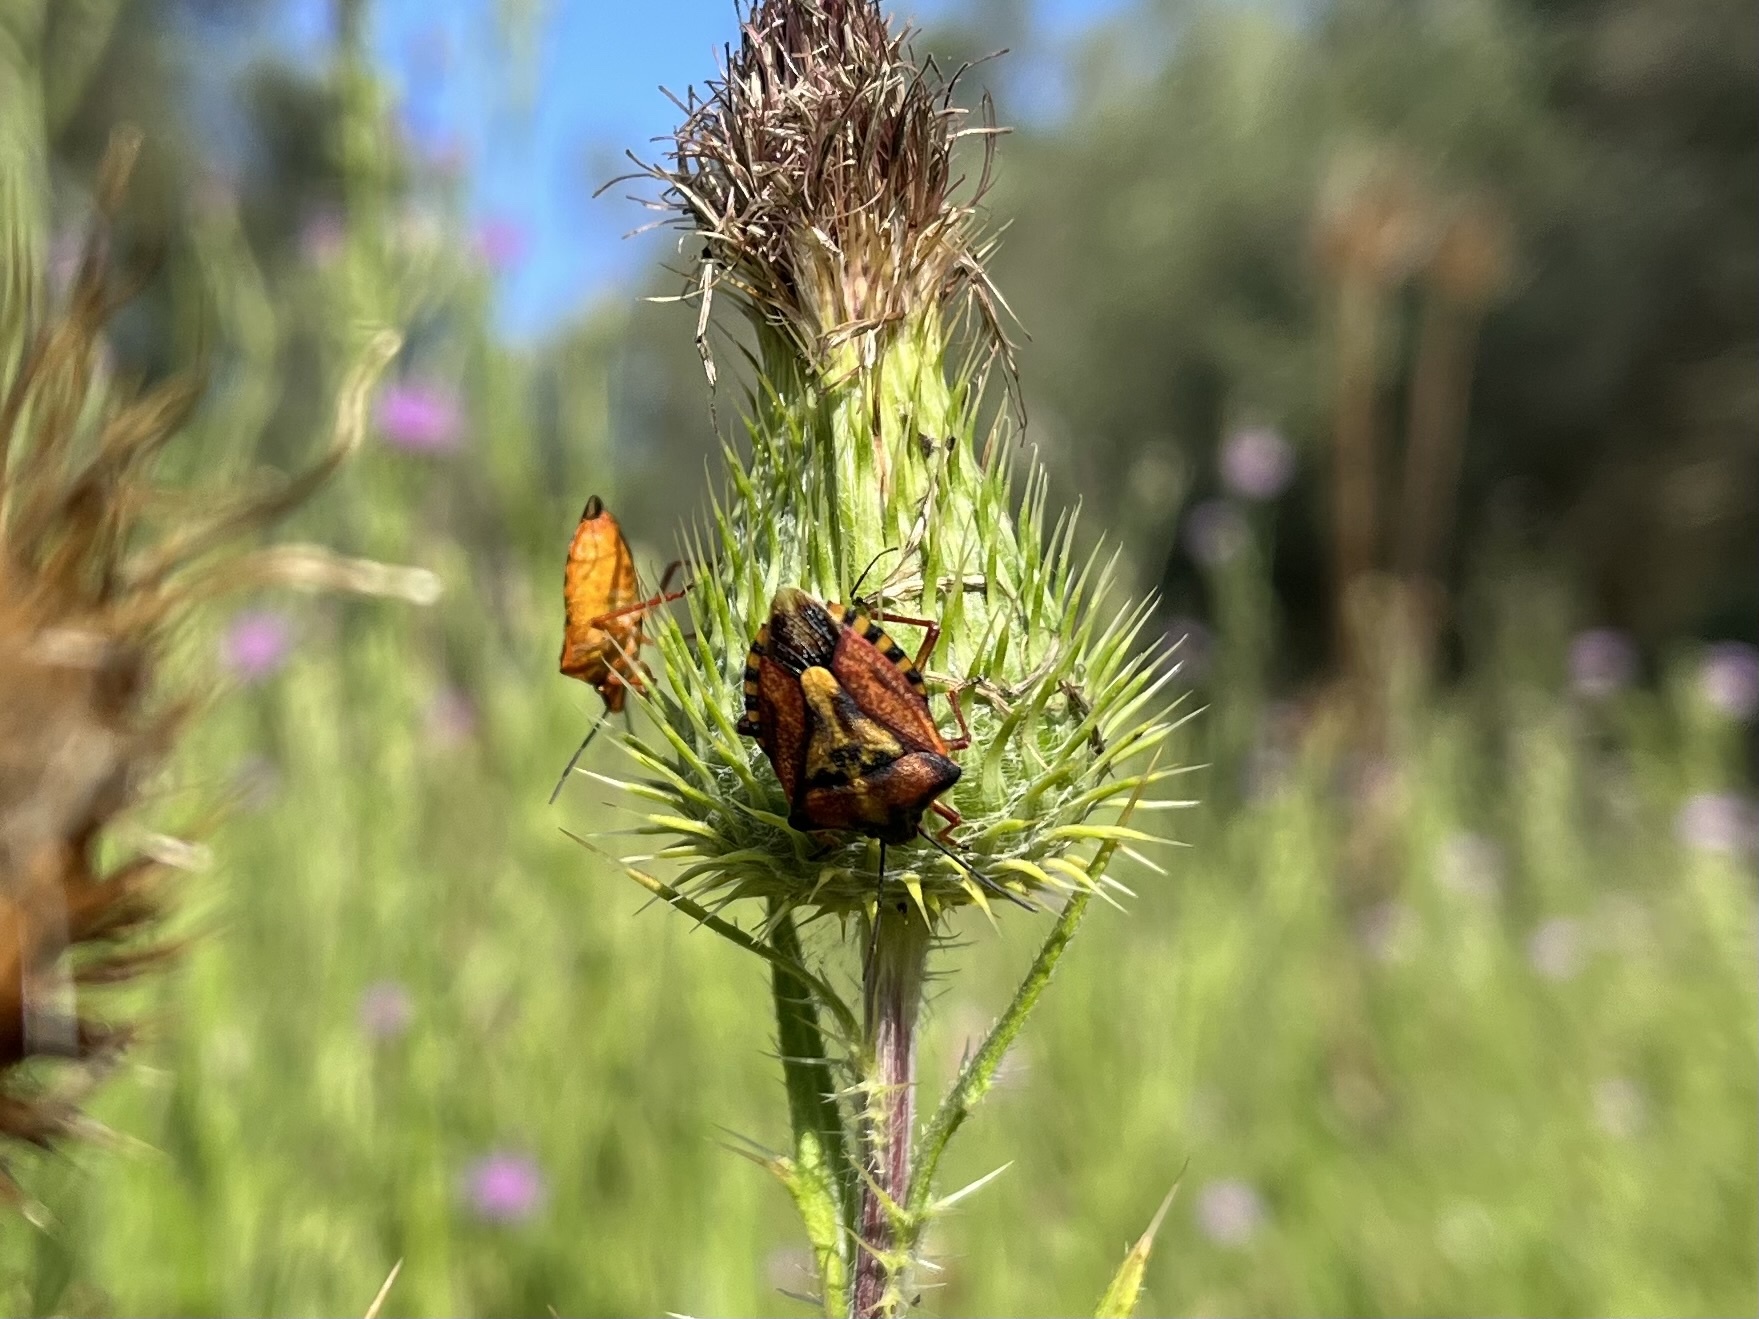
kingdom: Animalia
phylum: Arthropoda
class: Insecta
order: Hemiptera
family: Pentatomidae
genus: Carpocoris
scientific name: Carpocoris mediterraneus
